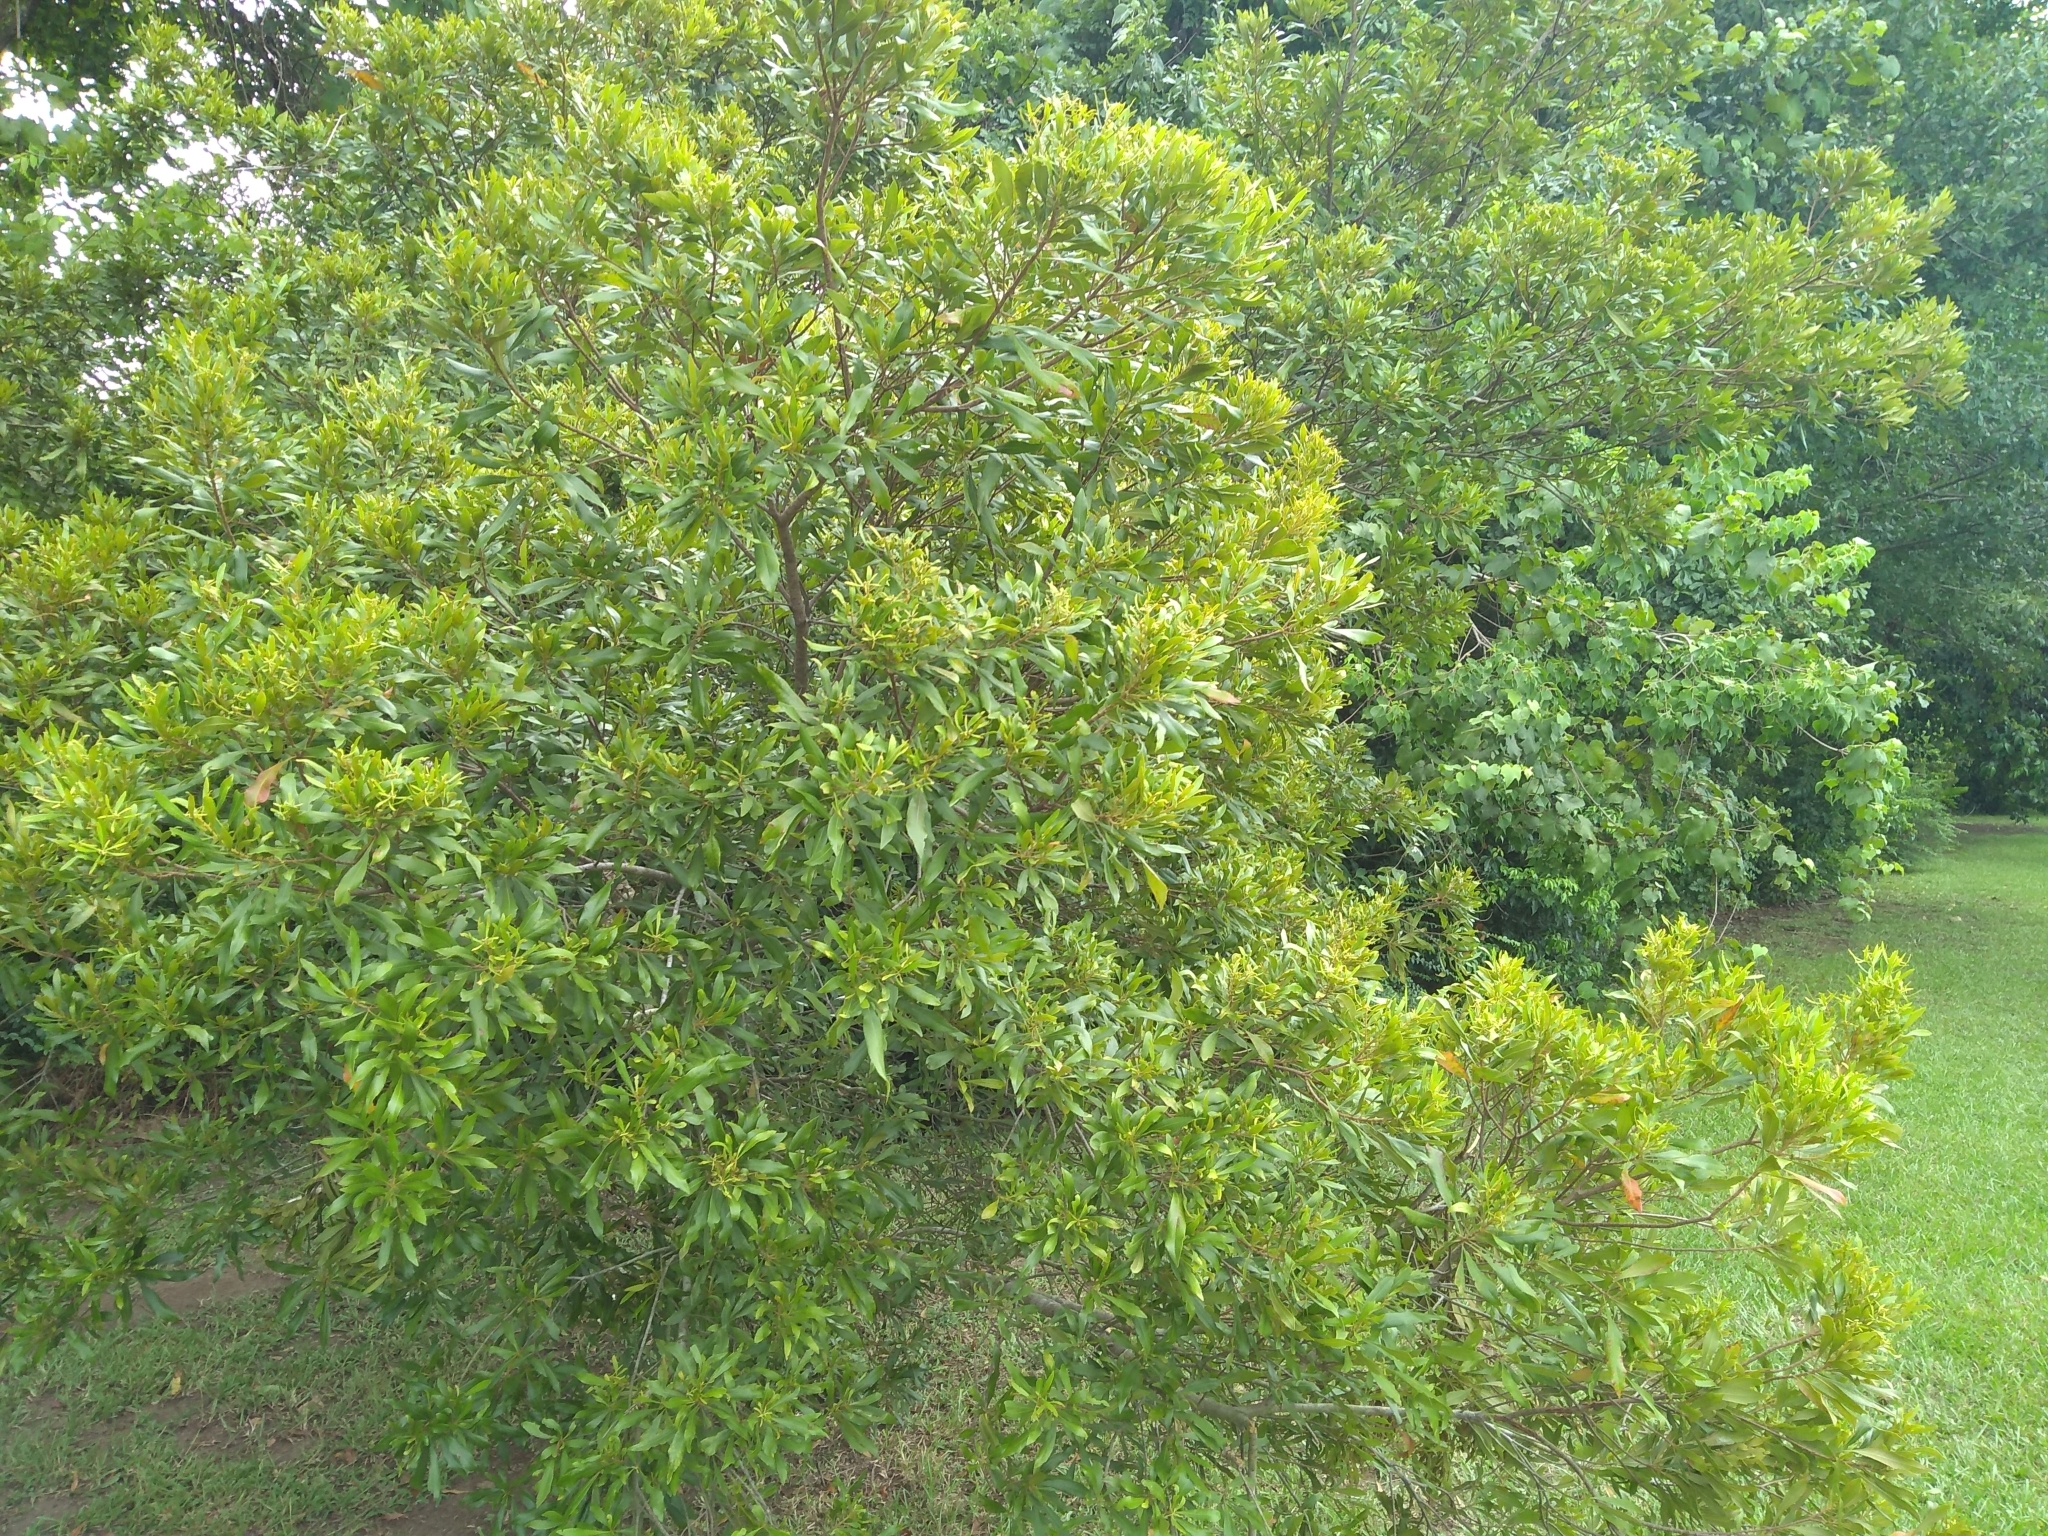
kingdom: Plantae
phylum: Tracheophyta
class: Magnoliopsida
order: Fagales
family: Myricaceae
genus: Morella
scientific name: Morella cerifera
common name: Wax myrtle
